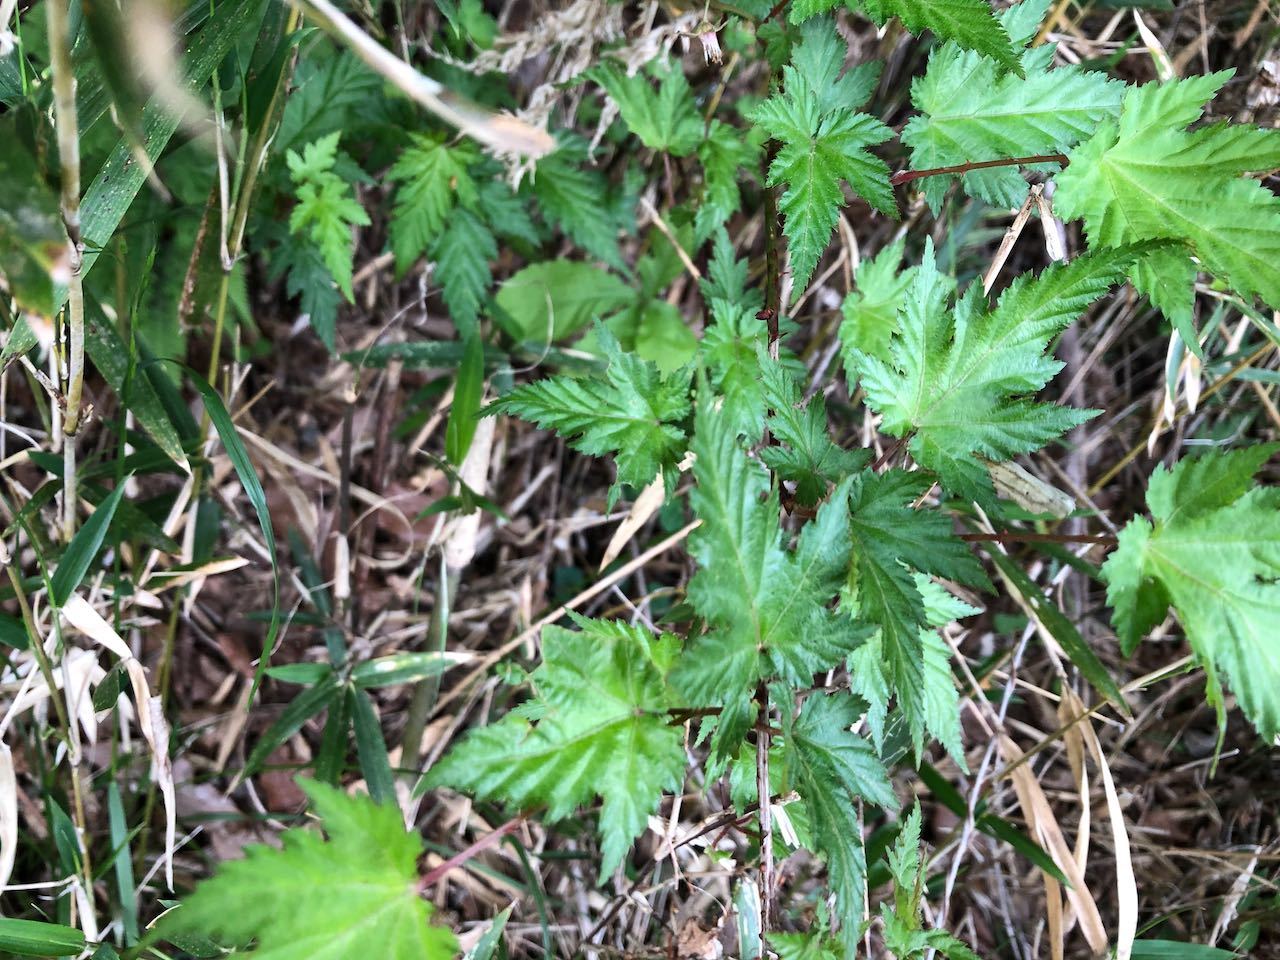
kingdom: Plantae
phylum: Tracheophyta
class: Magnoliopsida
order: Rosales
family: Rosaceae
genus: Rubus
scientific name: Rubus palmatus
